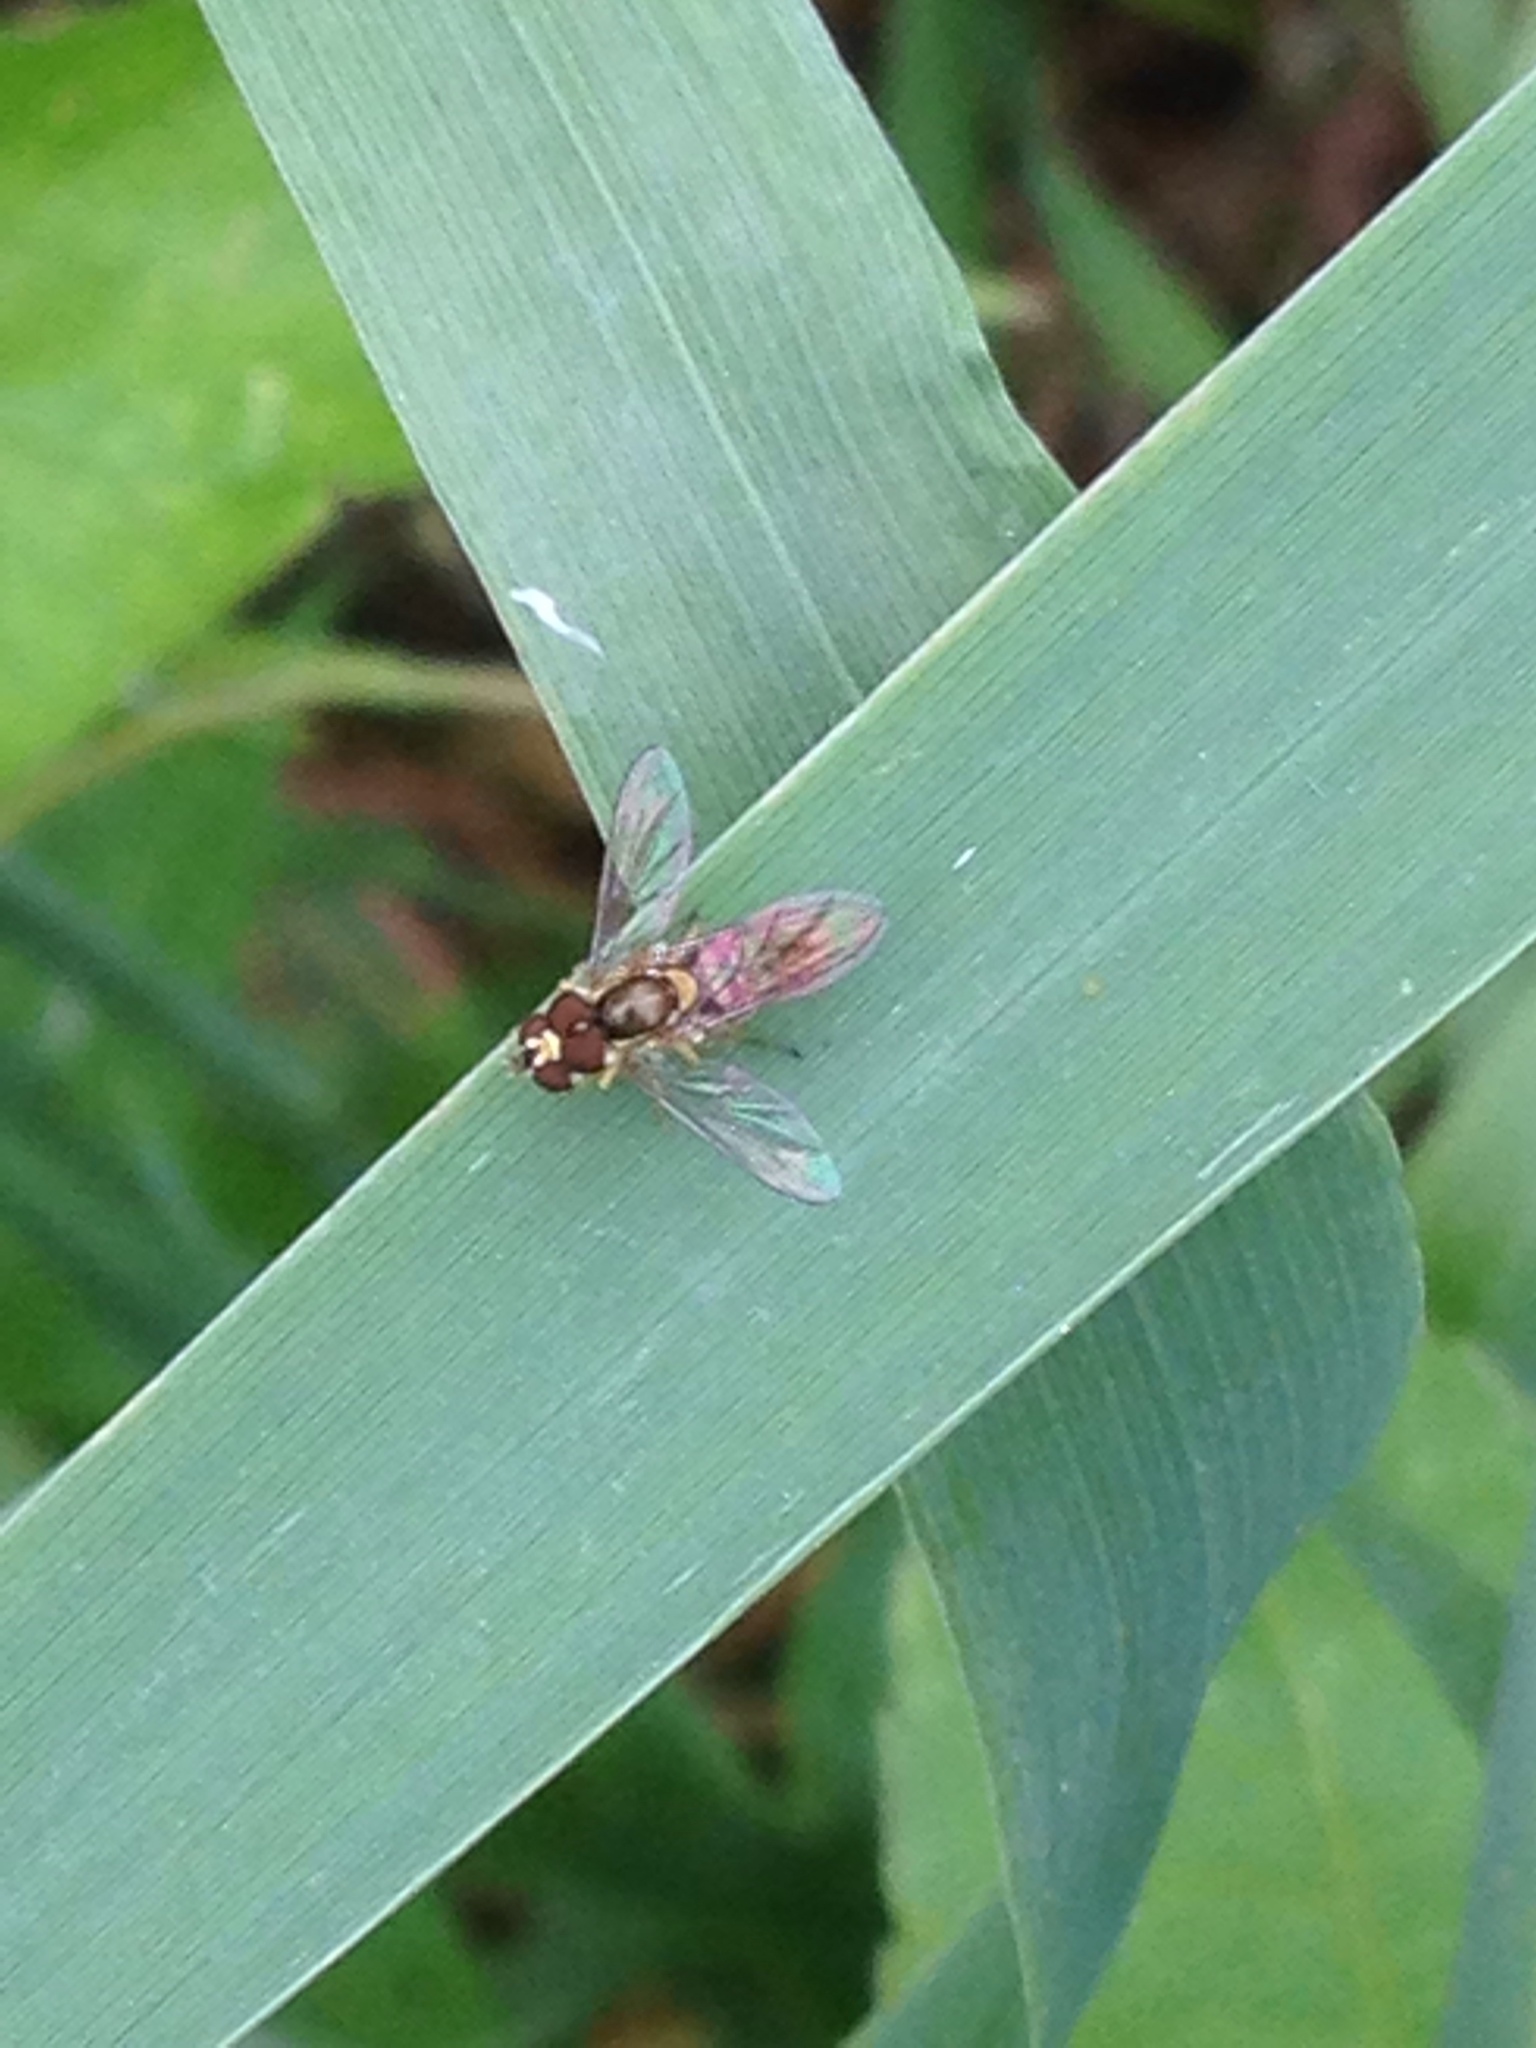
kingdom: Animalia
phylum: Arthropoda
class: Insecta
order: Diptera
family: Syrphidae
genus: Toxomerus
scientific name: Toxomerus marginatus
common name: Syrphid fly
